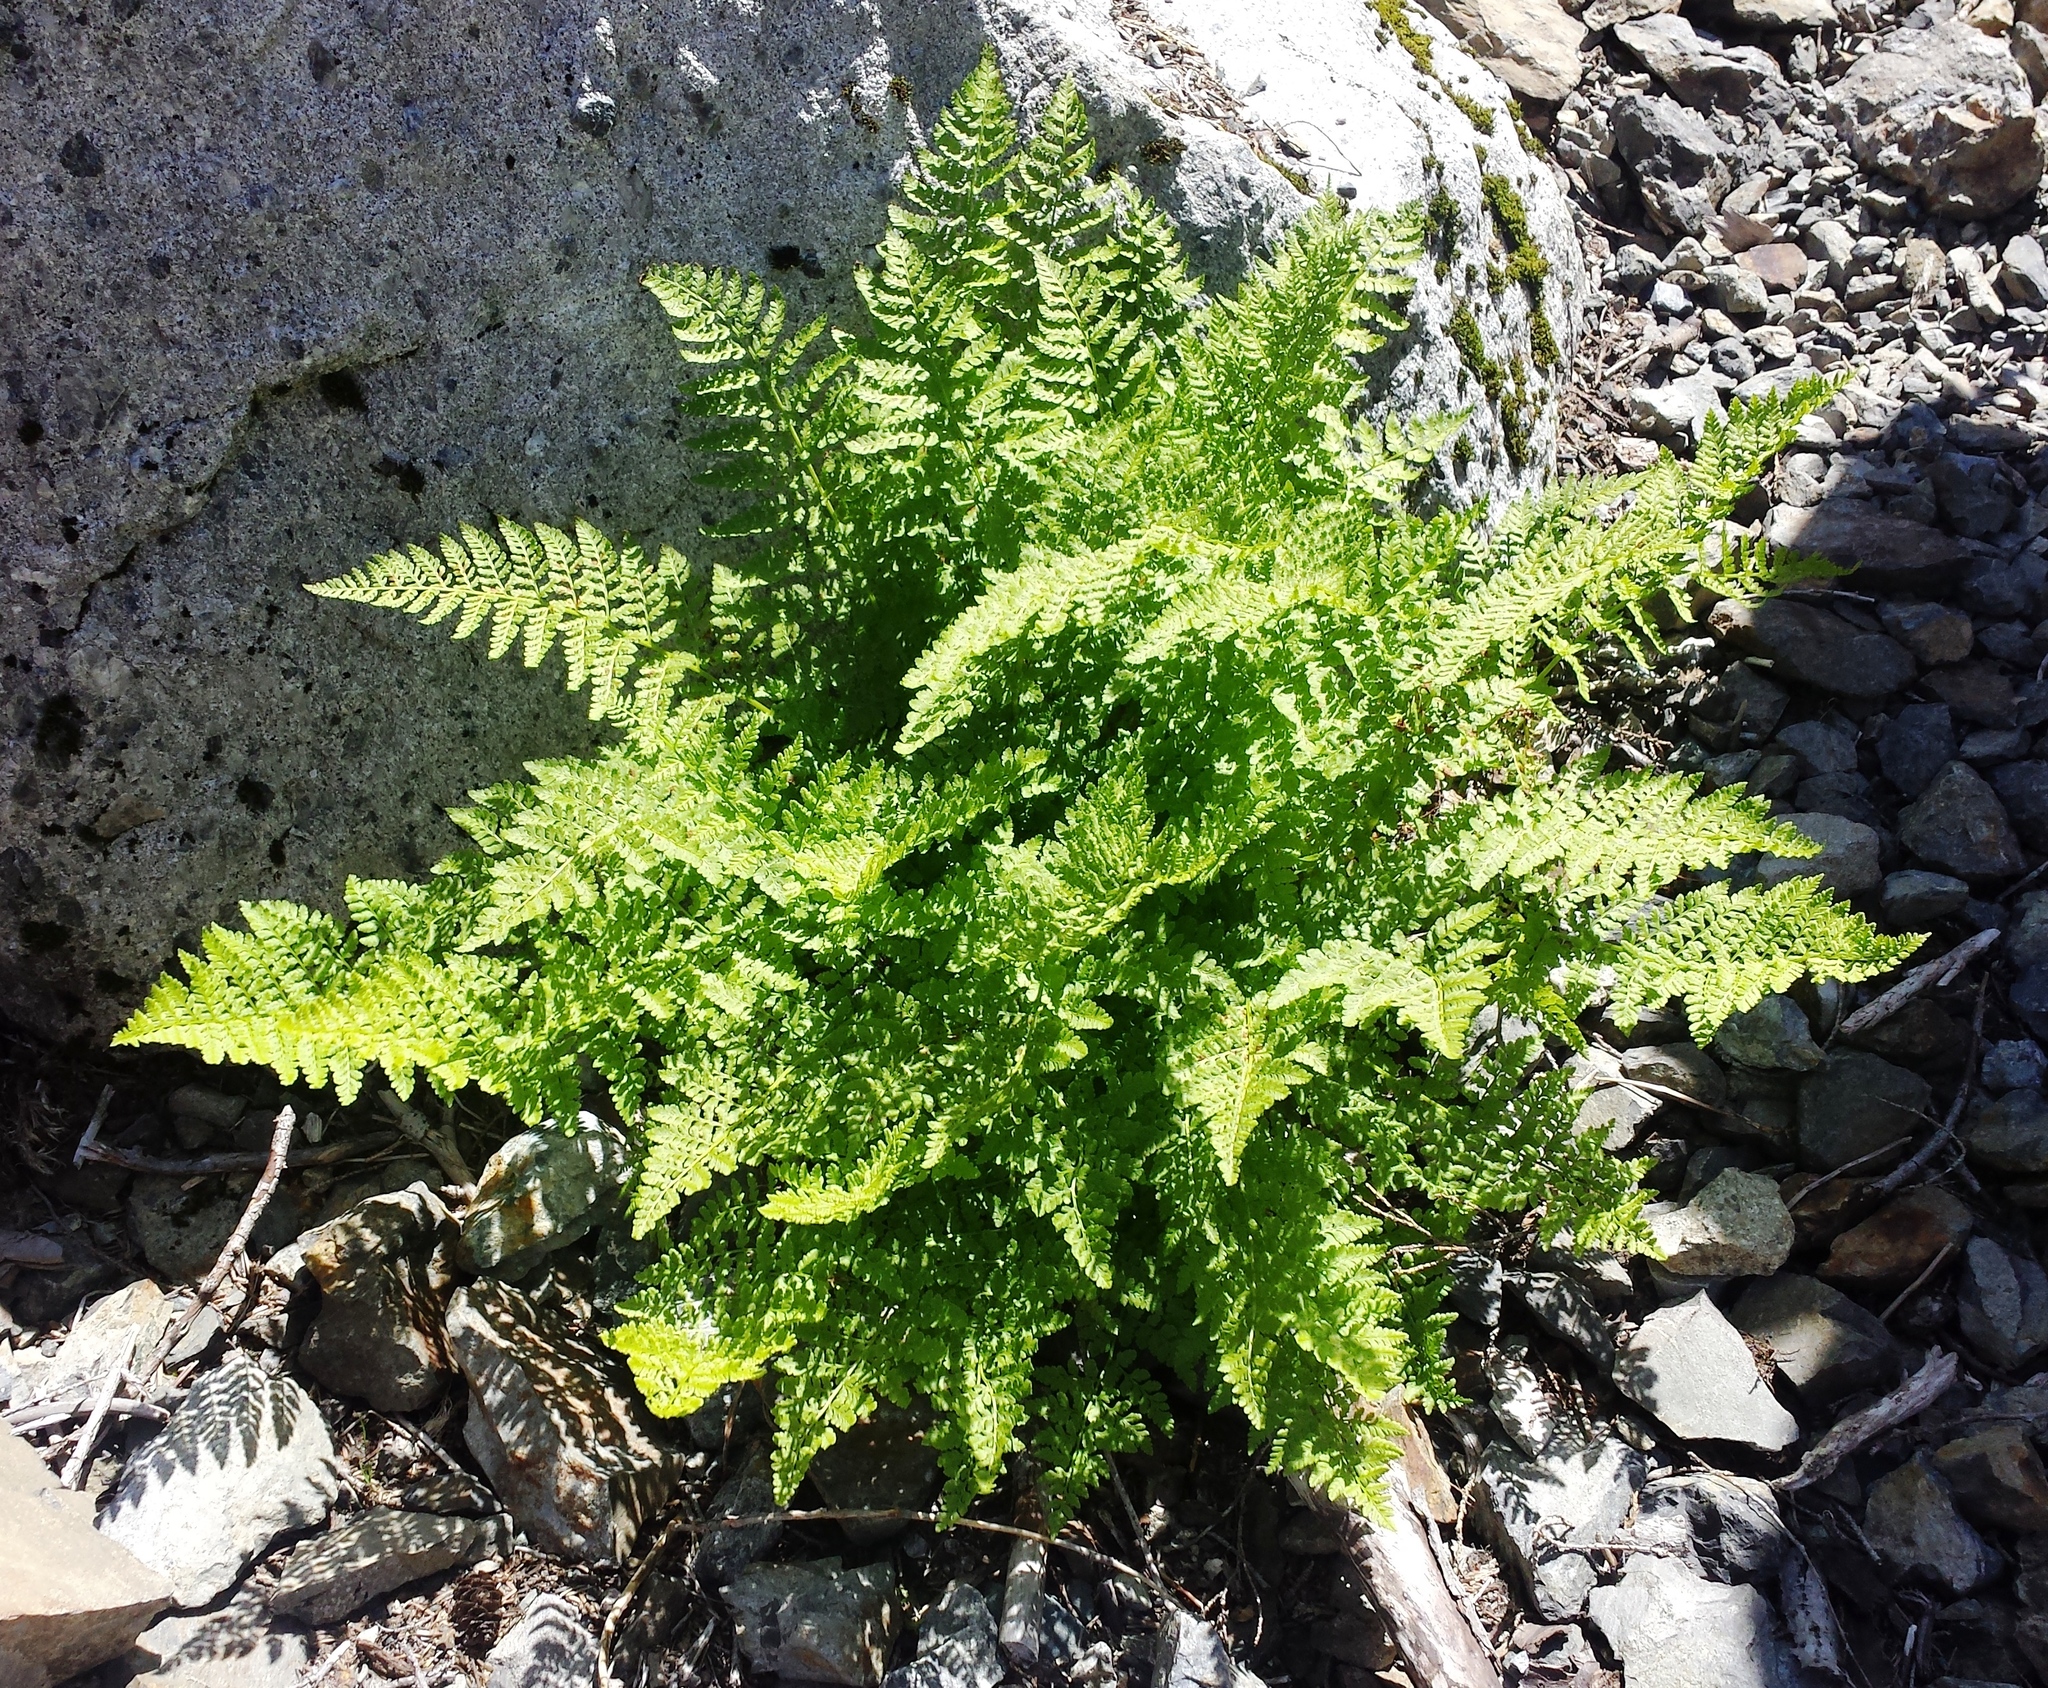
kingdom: Plantae
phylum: Tracheophyta
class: Polypodiopsida
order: Polypodiales
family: Athyriaceae
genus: Athyrium
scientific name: Athyrium americanum
